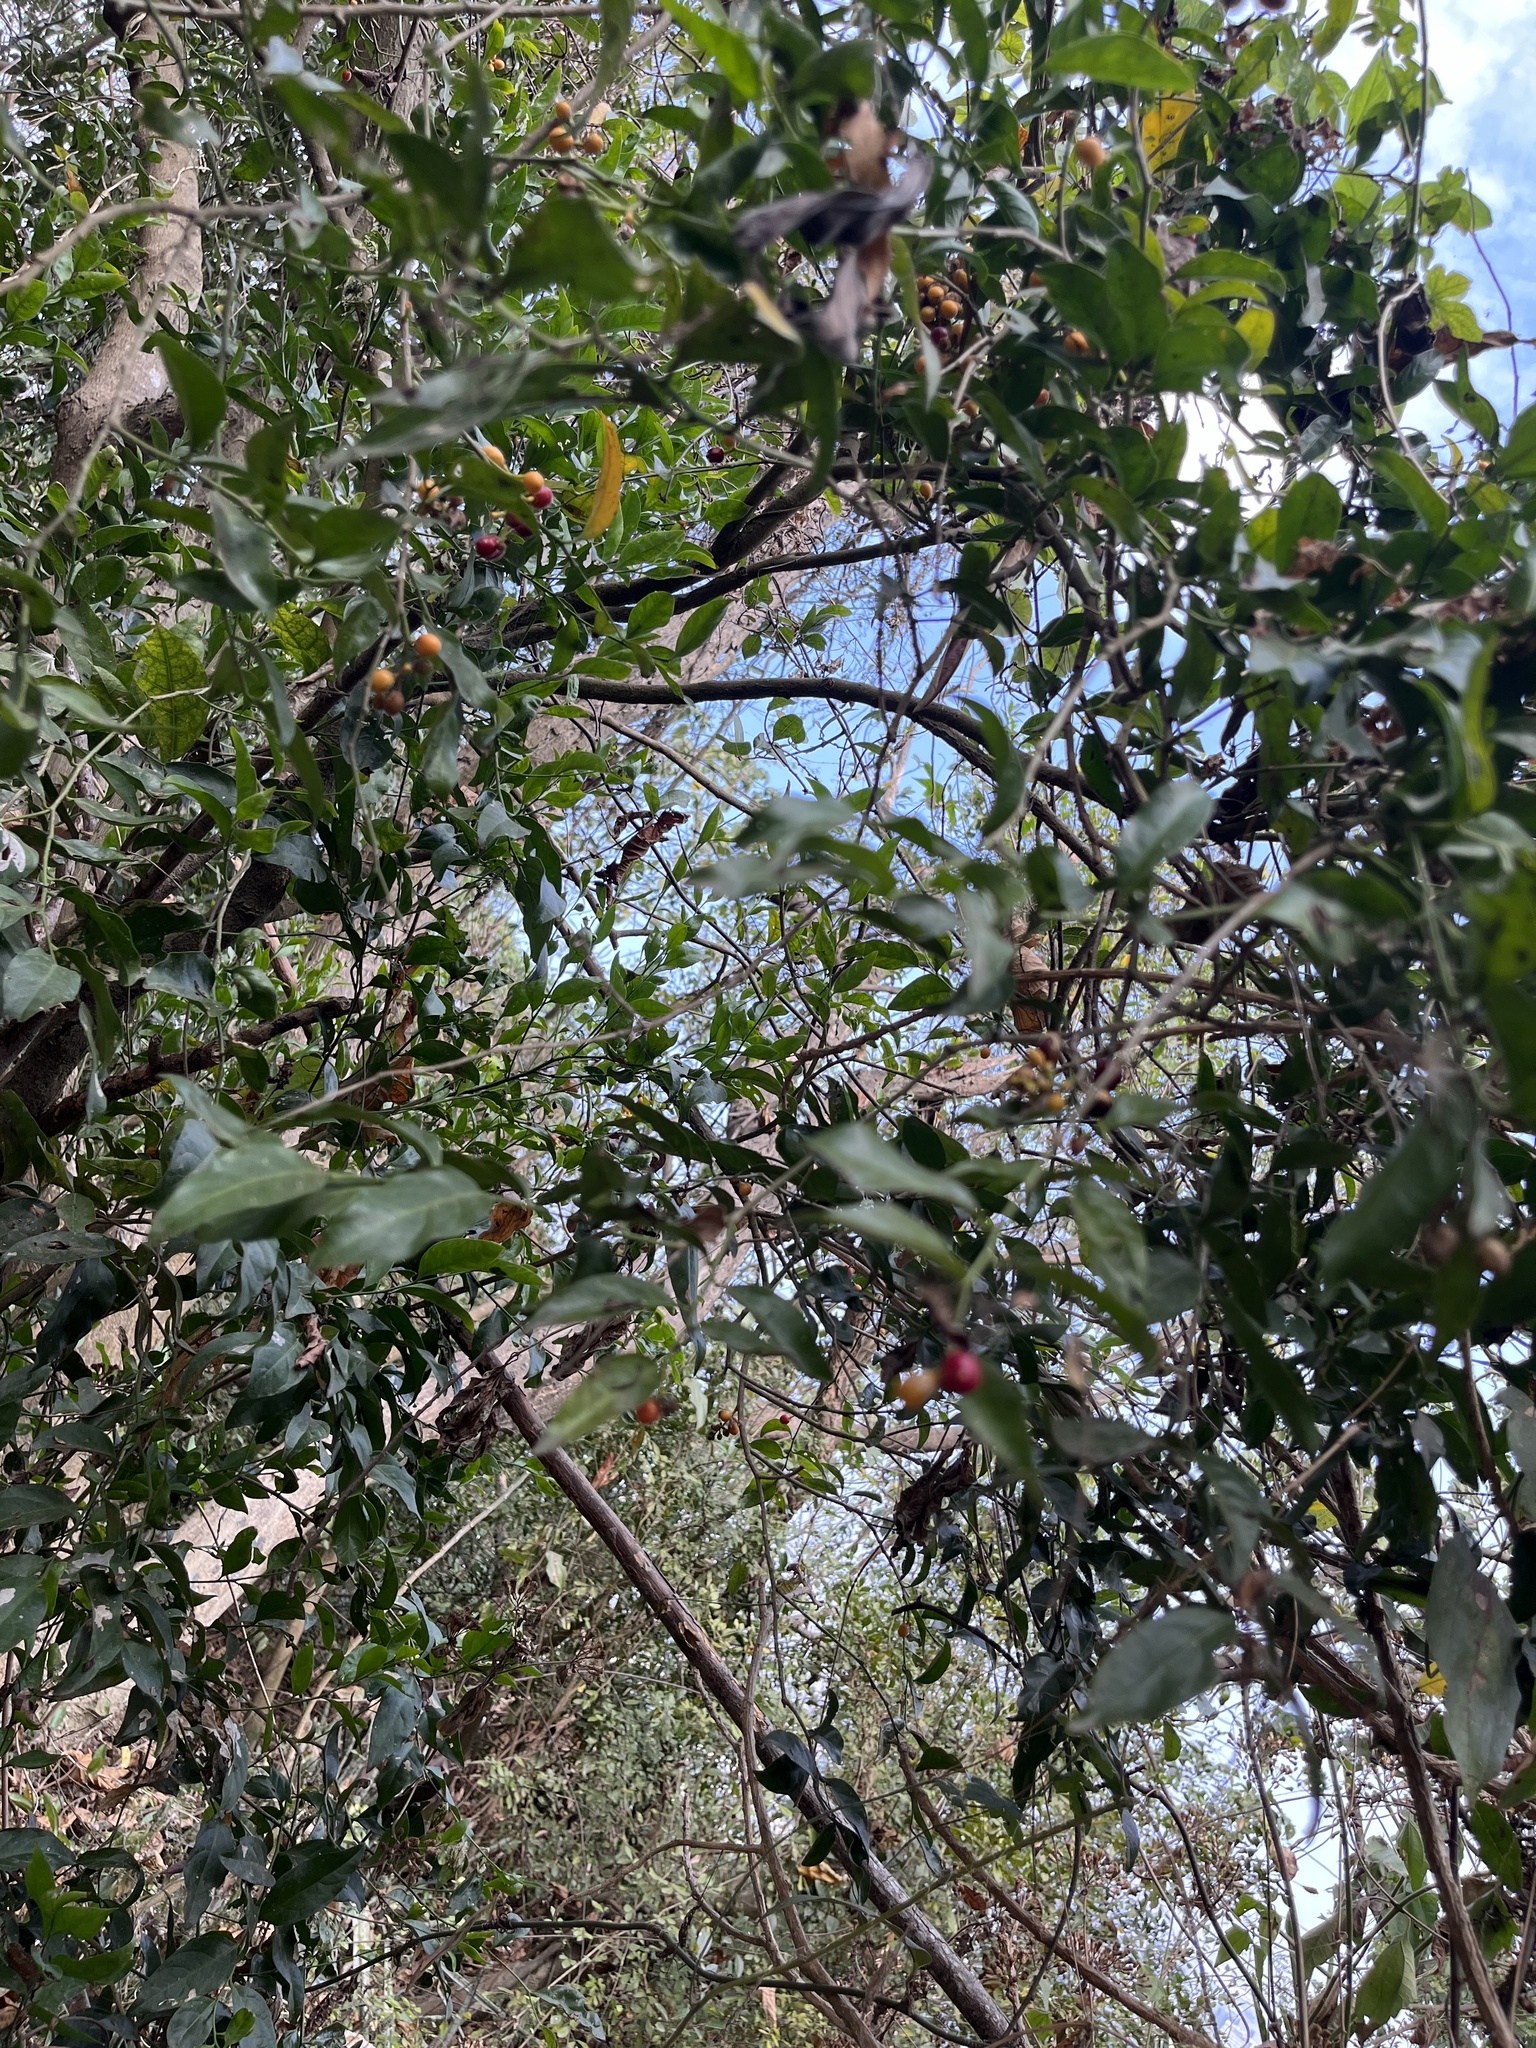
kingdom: Plantae
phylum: Tracheophyta
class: Magnoliopsida
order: Santalales
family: Opiliaceae
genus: Champereia
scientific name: Champereia manillana
